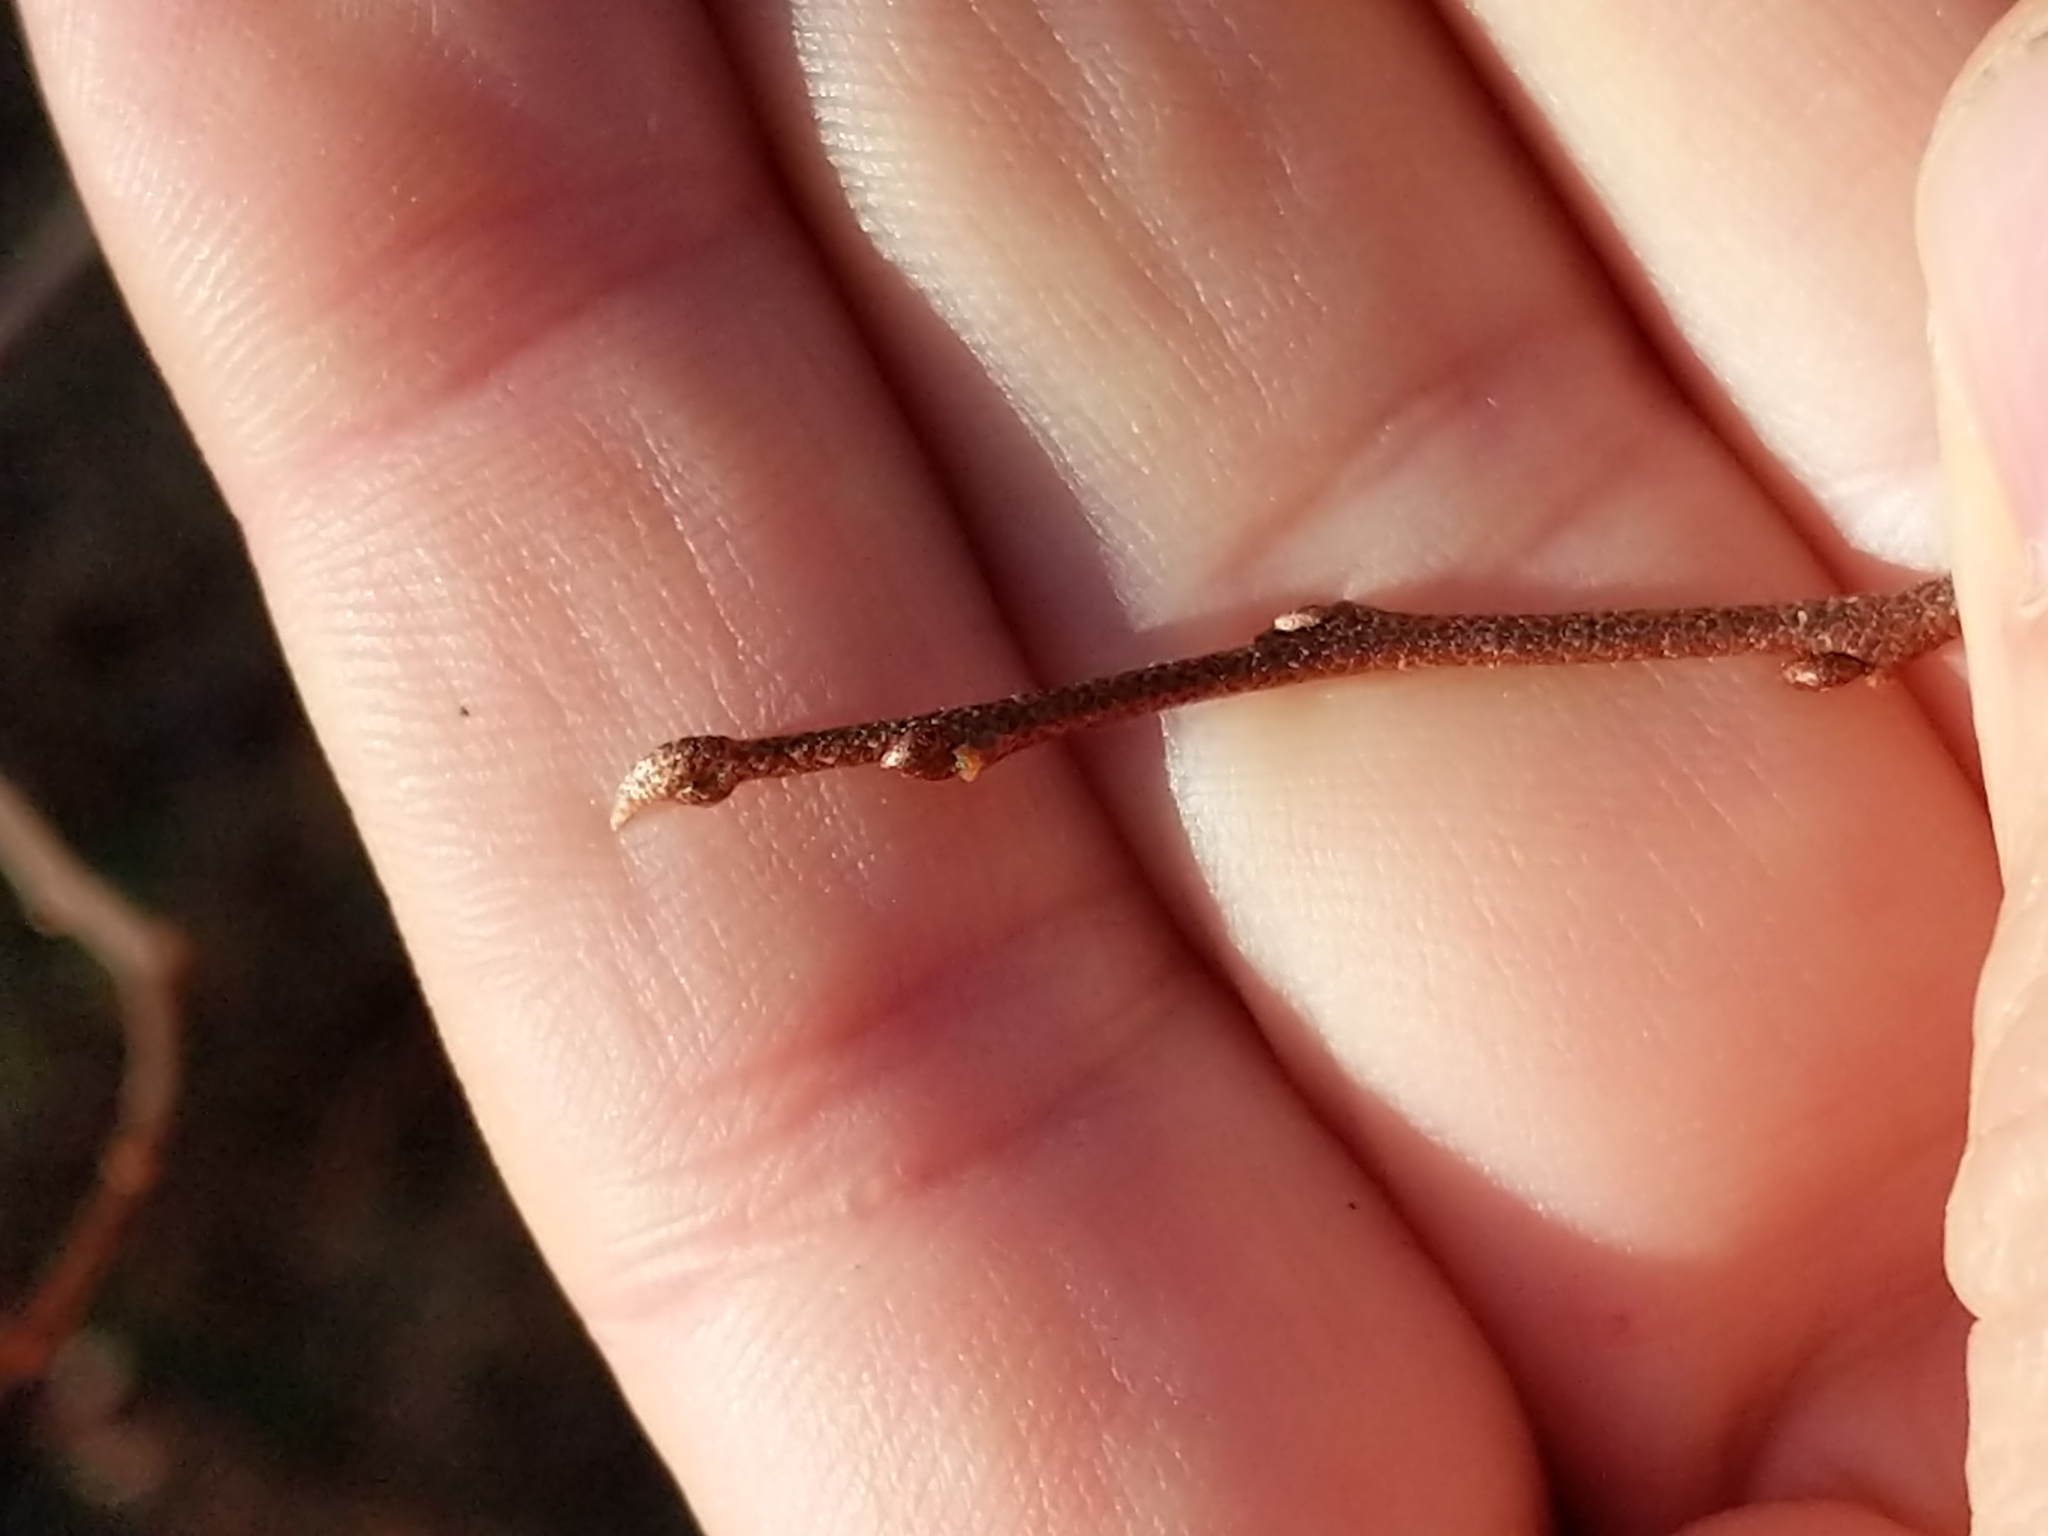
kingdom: Plantae
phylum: Tracheophyta
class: Magnoliopsida
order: Rosales
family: Elaeagnaceae
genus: Elaeagnus
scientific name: Elaeagnus umbellata
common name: Autumn olive
